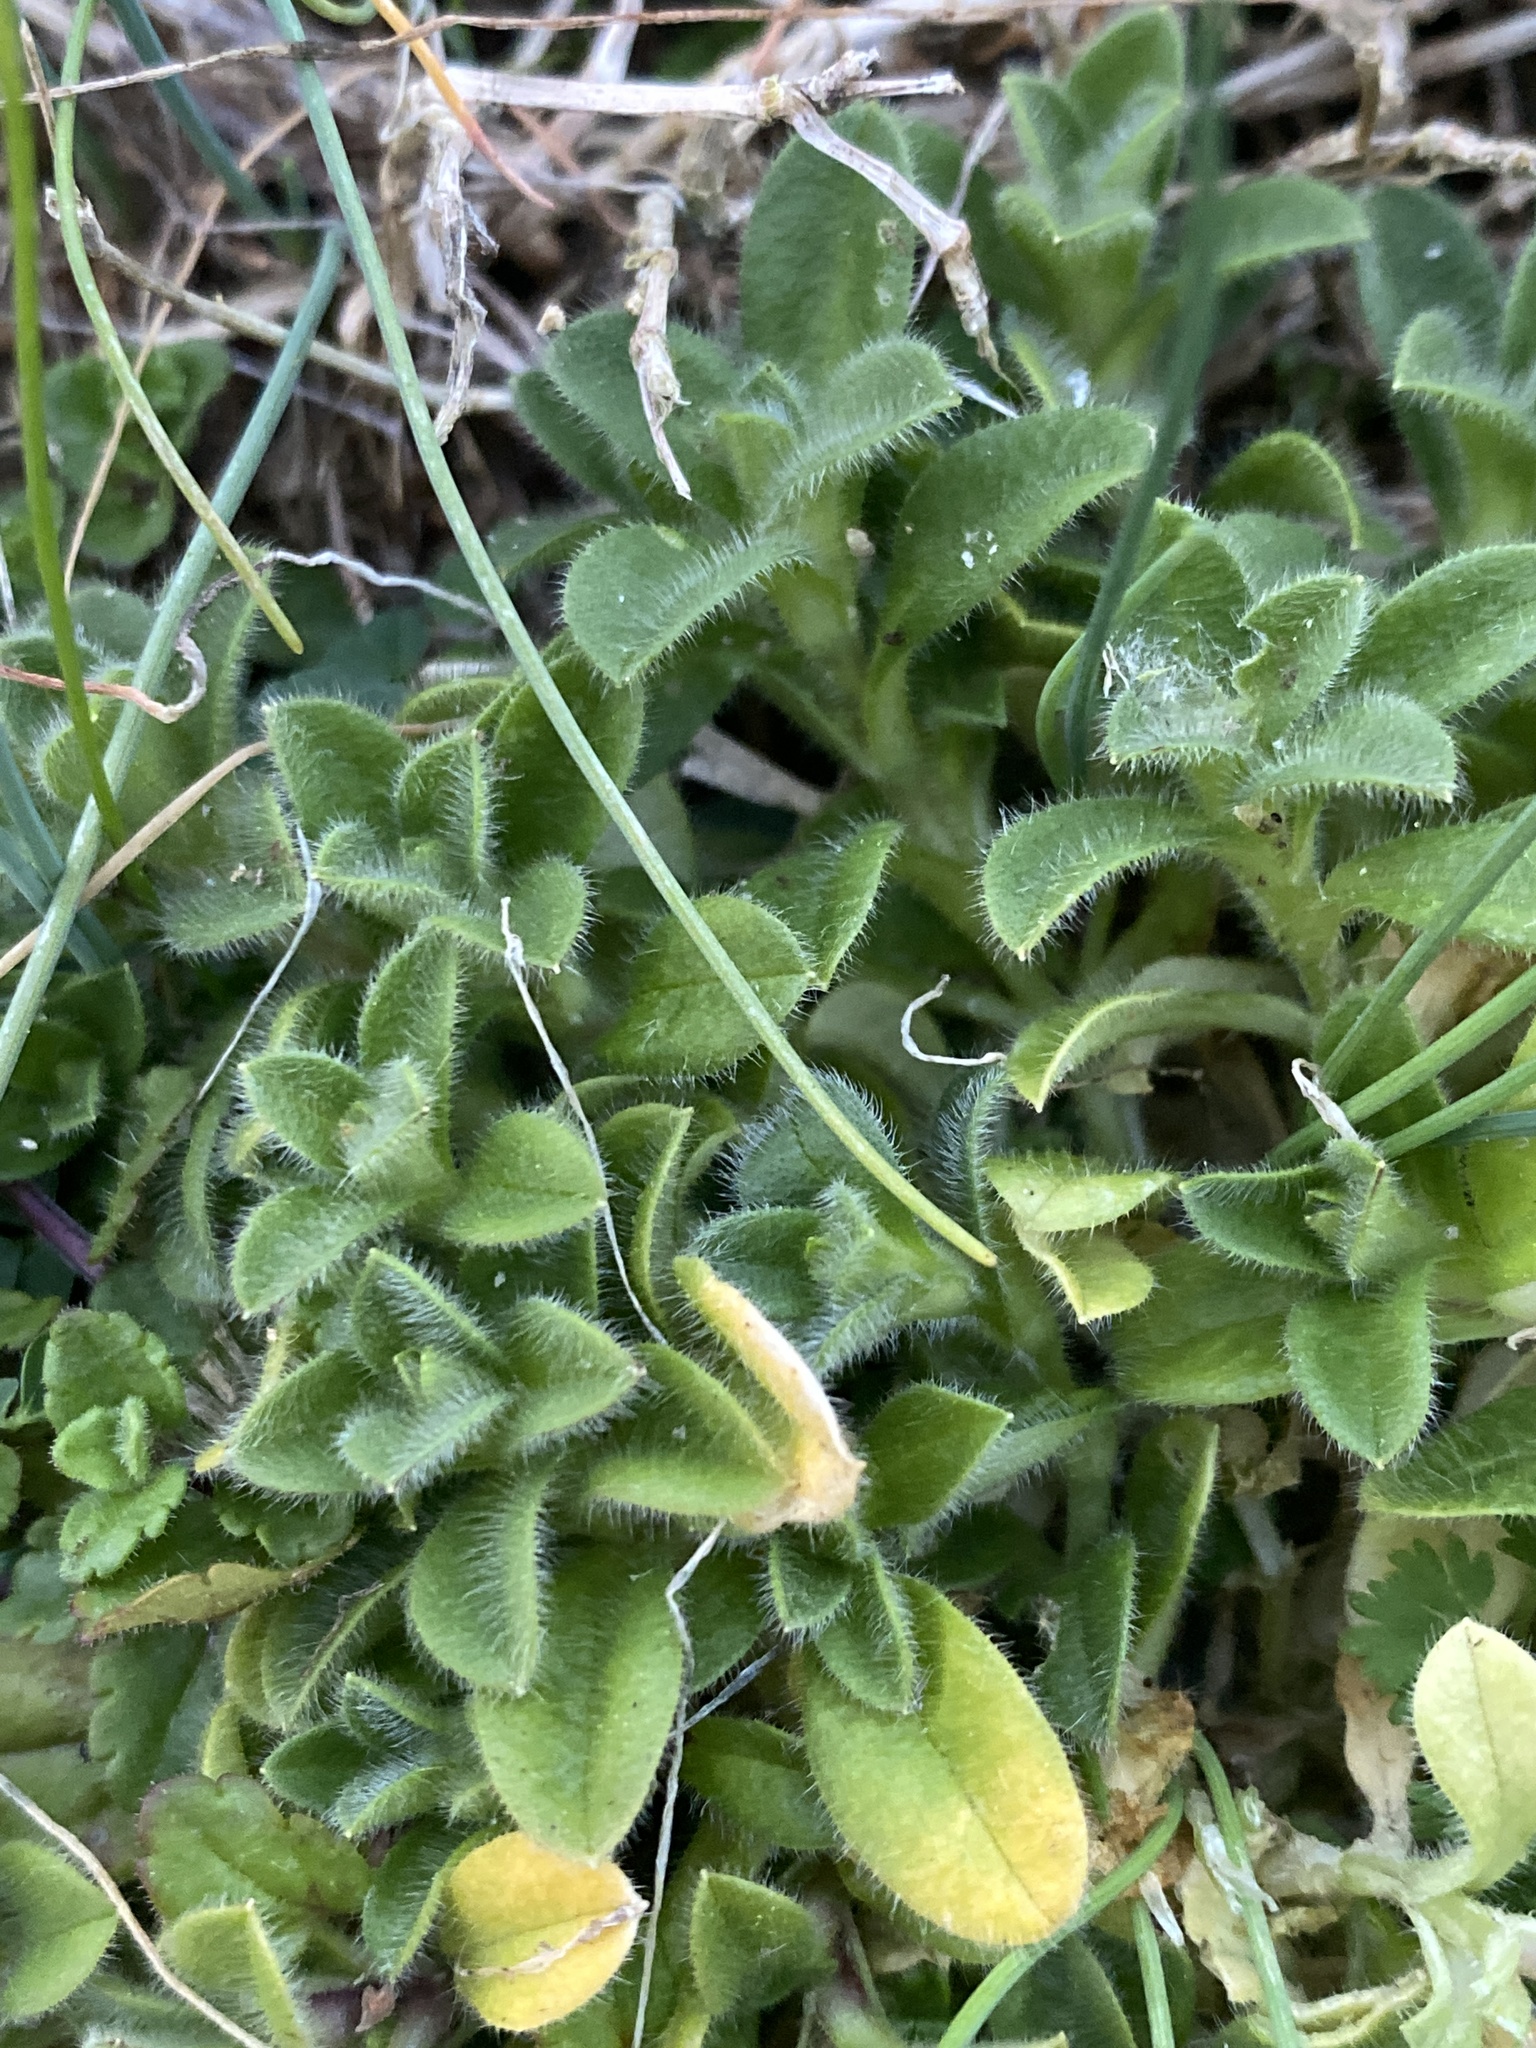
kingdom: Plantae
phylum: Tracheophyta
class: Magnoliopsida
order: Caryophyllales
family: Caryophyllaceae
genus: Cerastium
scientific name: Cerastium glomeratum
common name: Sticky chickweed
